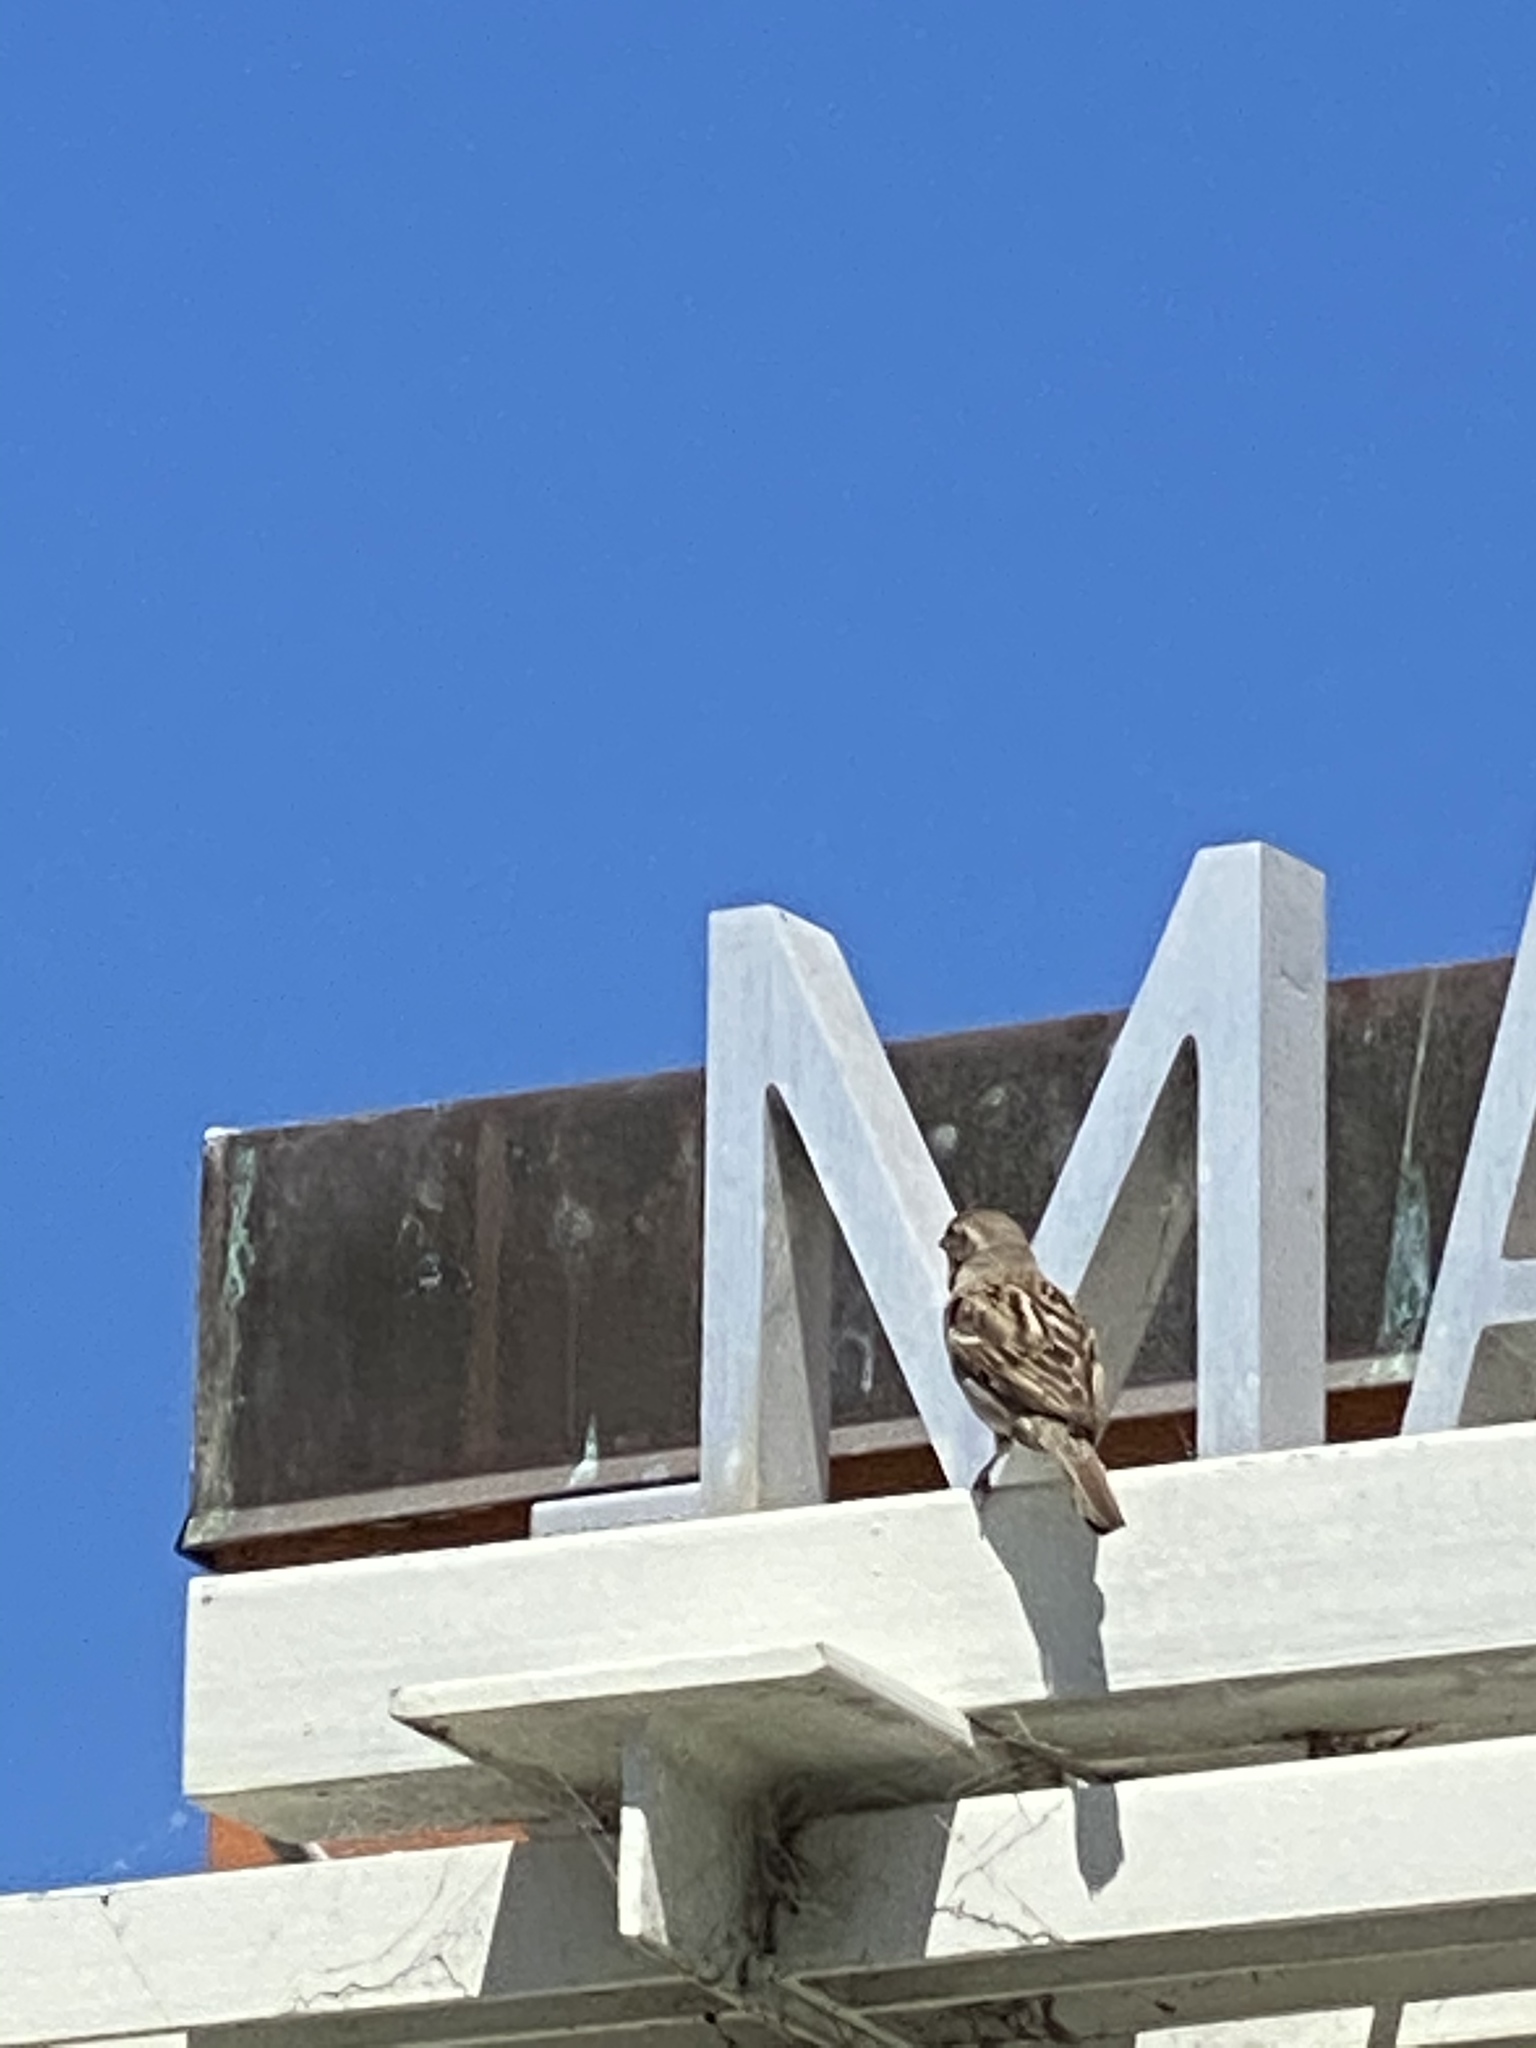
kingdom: Animalia
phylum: Chordata
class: Aves
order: Passeriformes
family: Passeridae
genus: Passer
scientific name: Passer domesticus
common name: House sparrow
